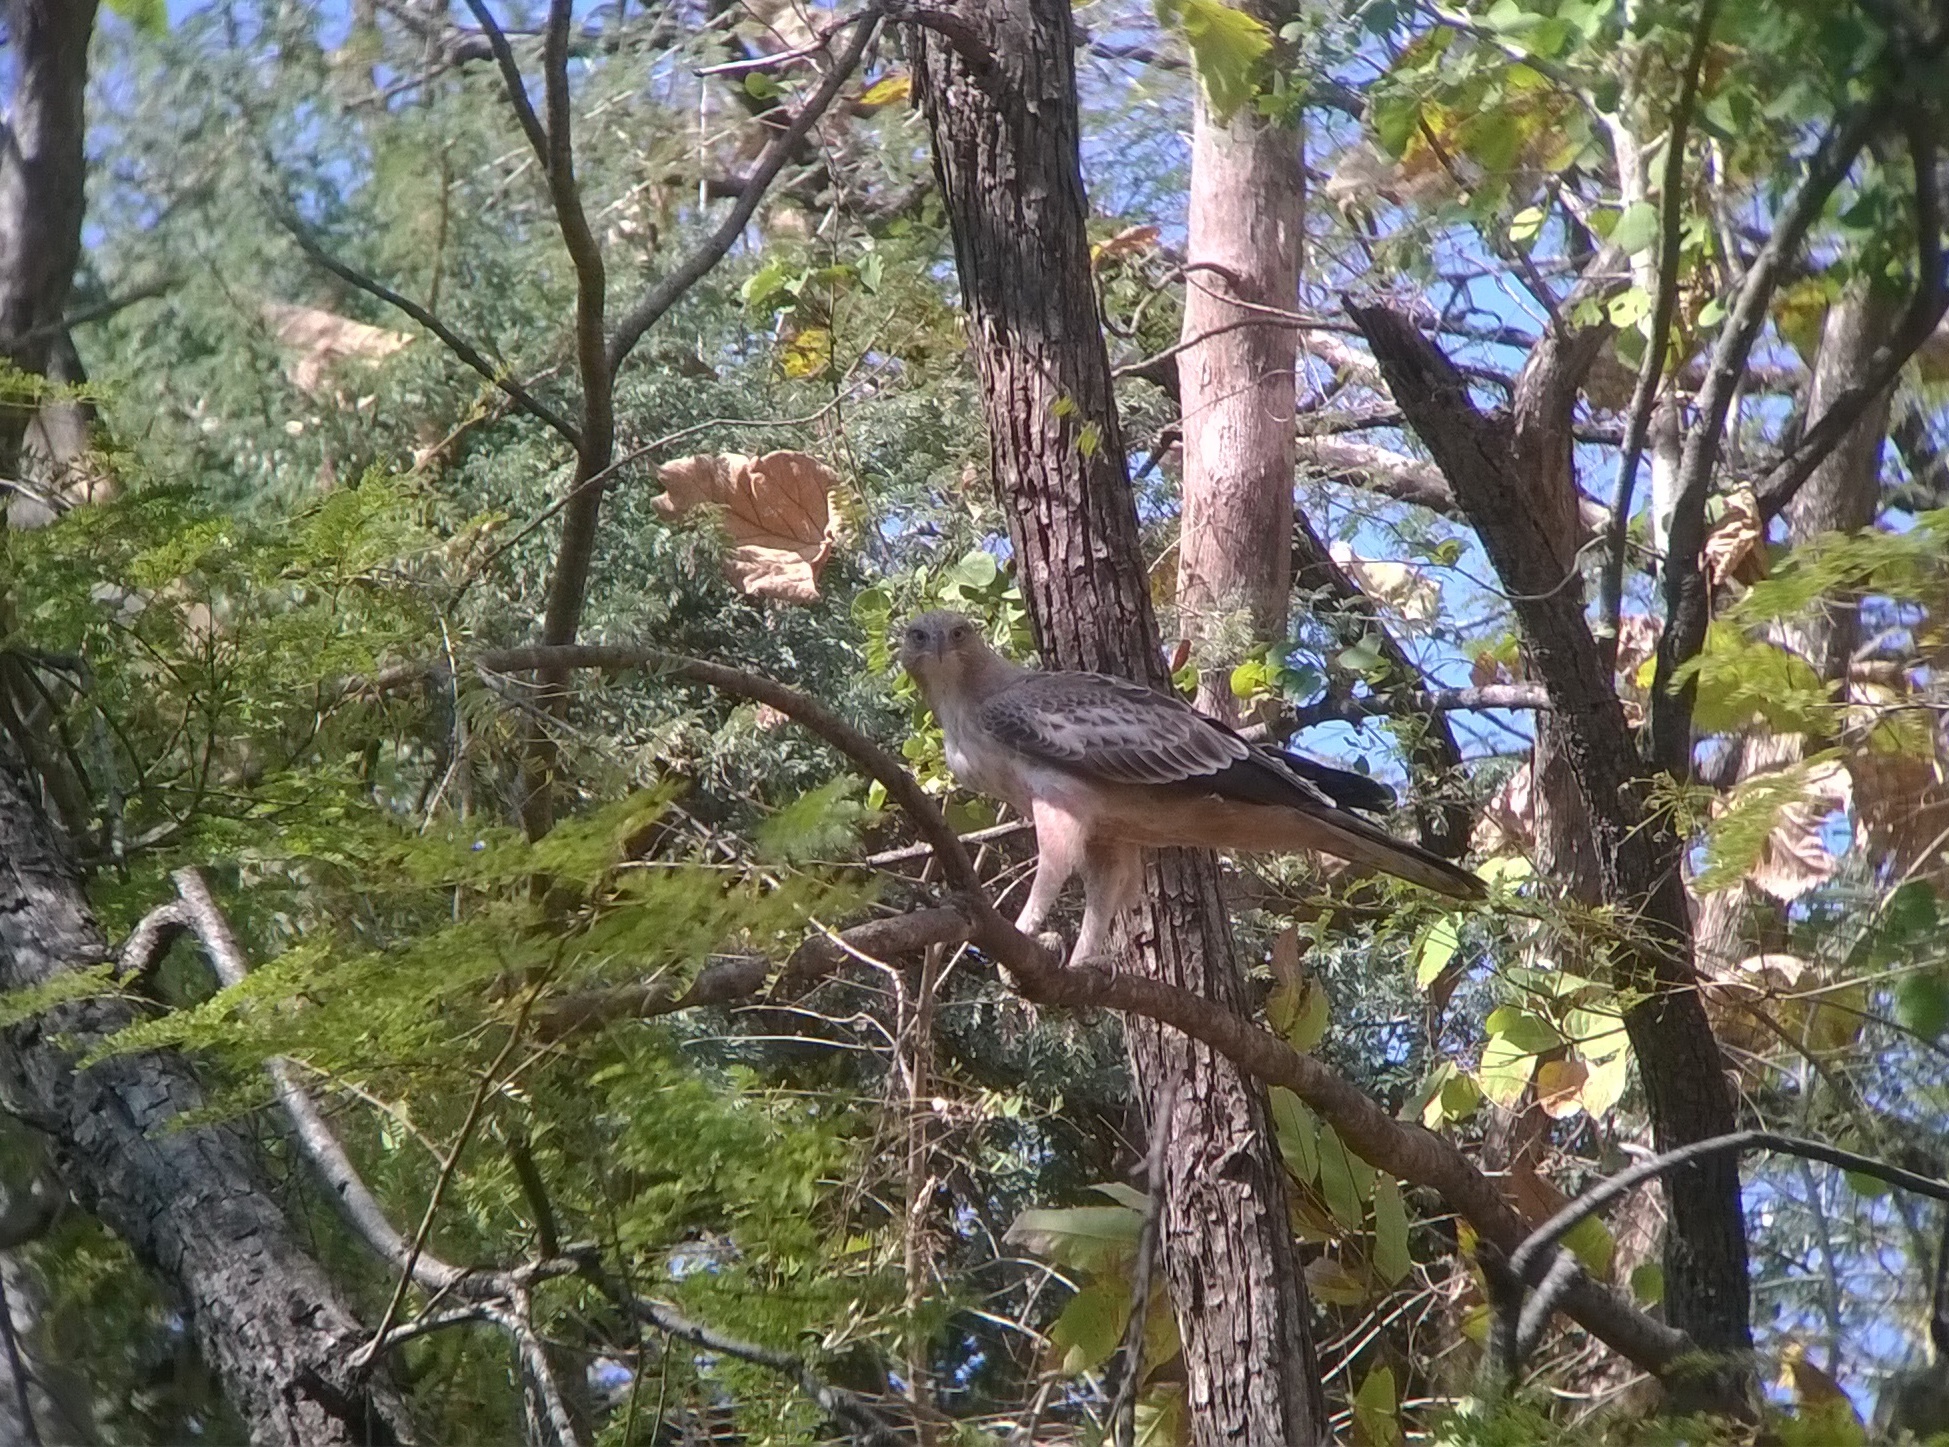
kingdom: Animalia
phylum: Chordata
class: Aves
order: Accipitriformes
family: Accipitridae
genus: Nisaetus
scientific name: Nisaetus cirrhatus
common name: Changeable hawk-eagle
